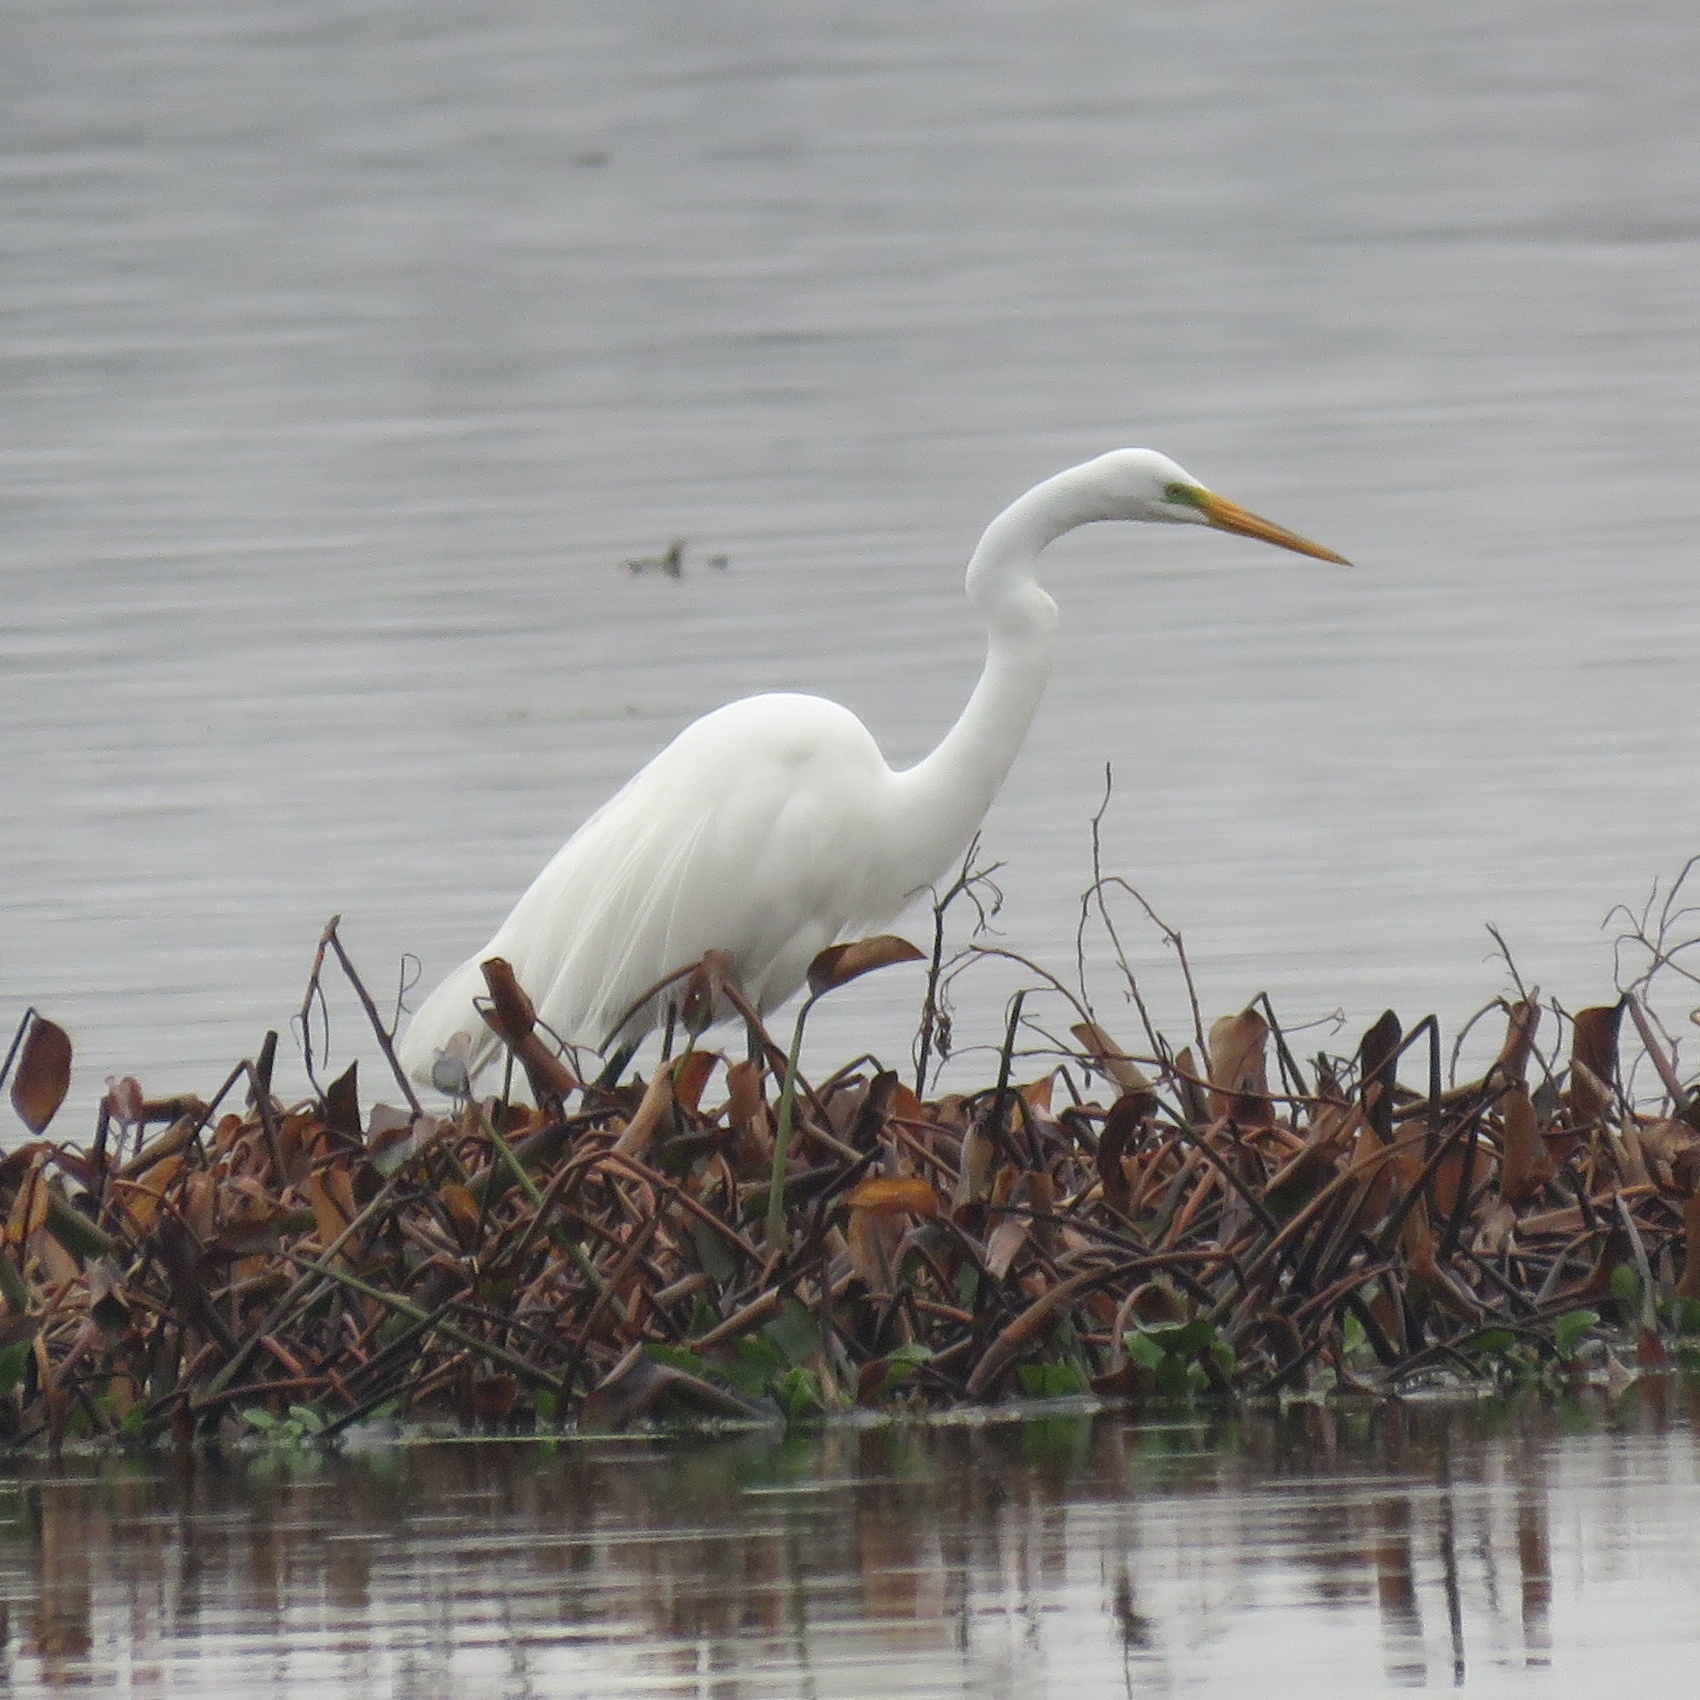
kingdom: Animalia
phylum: Chordata
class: Aves
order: Pelecaniformes
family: Ardeidae
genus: Ardea
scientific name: Ardea alba
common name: Great egret
